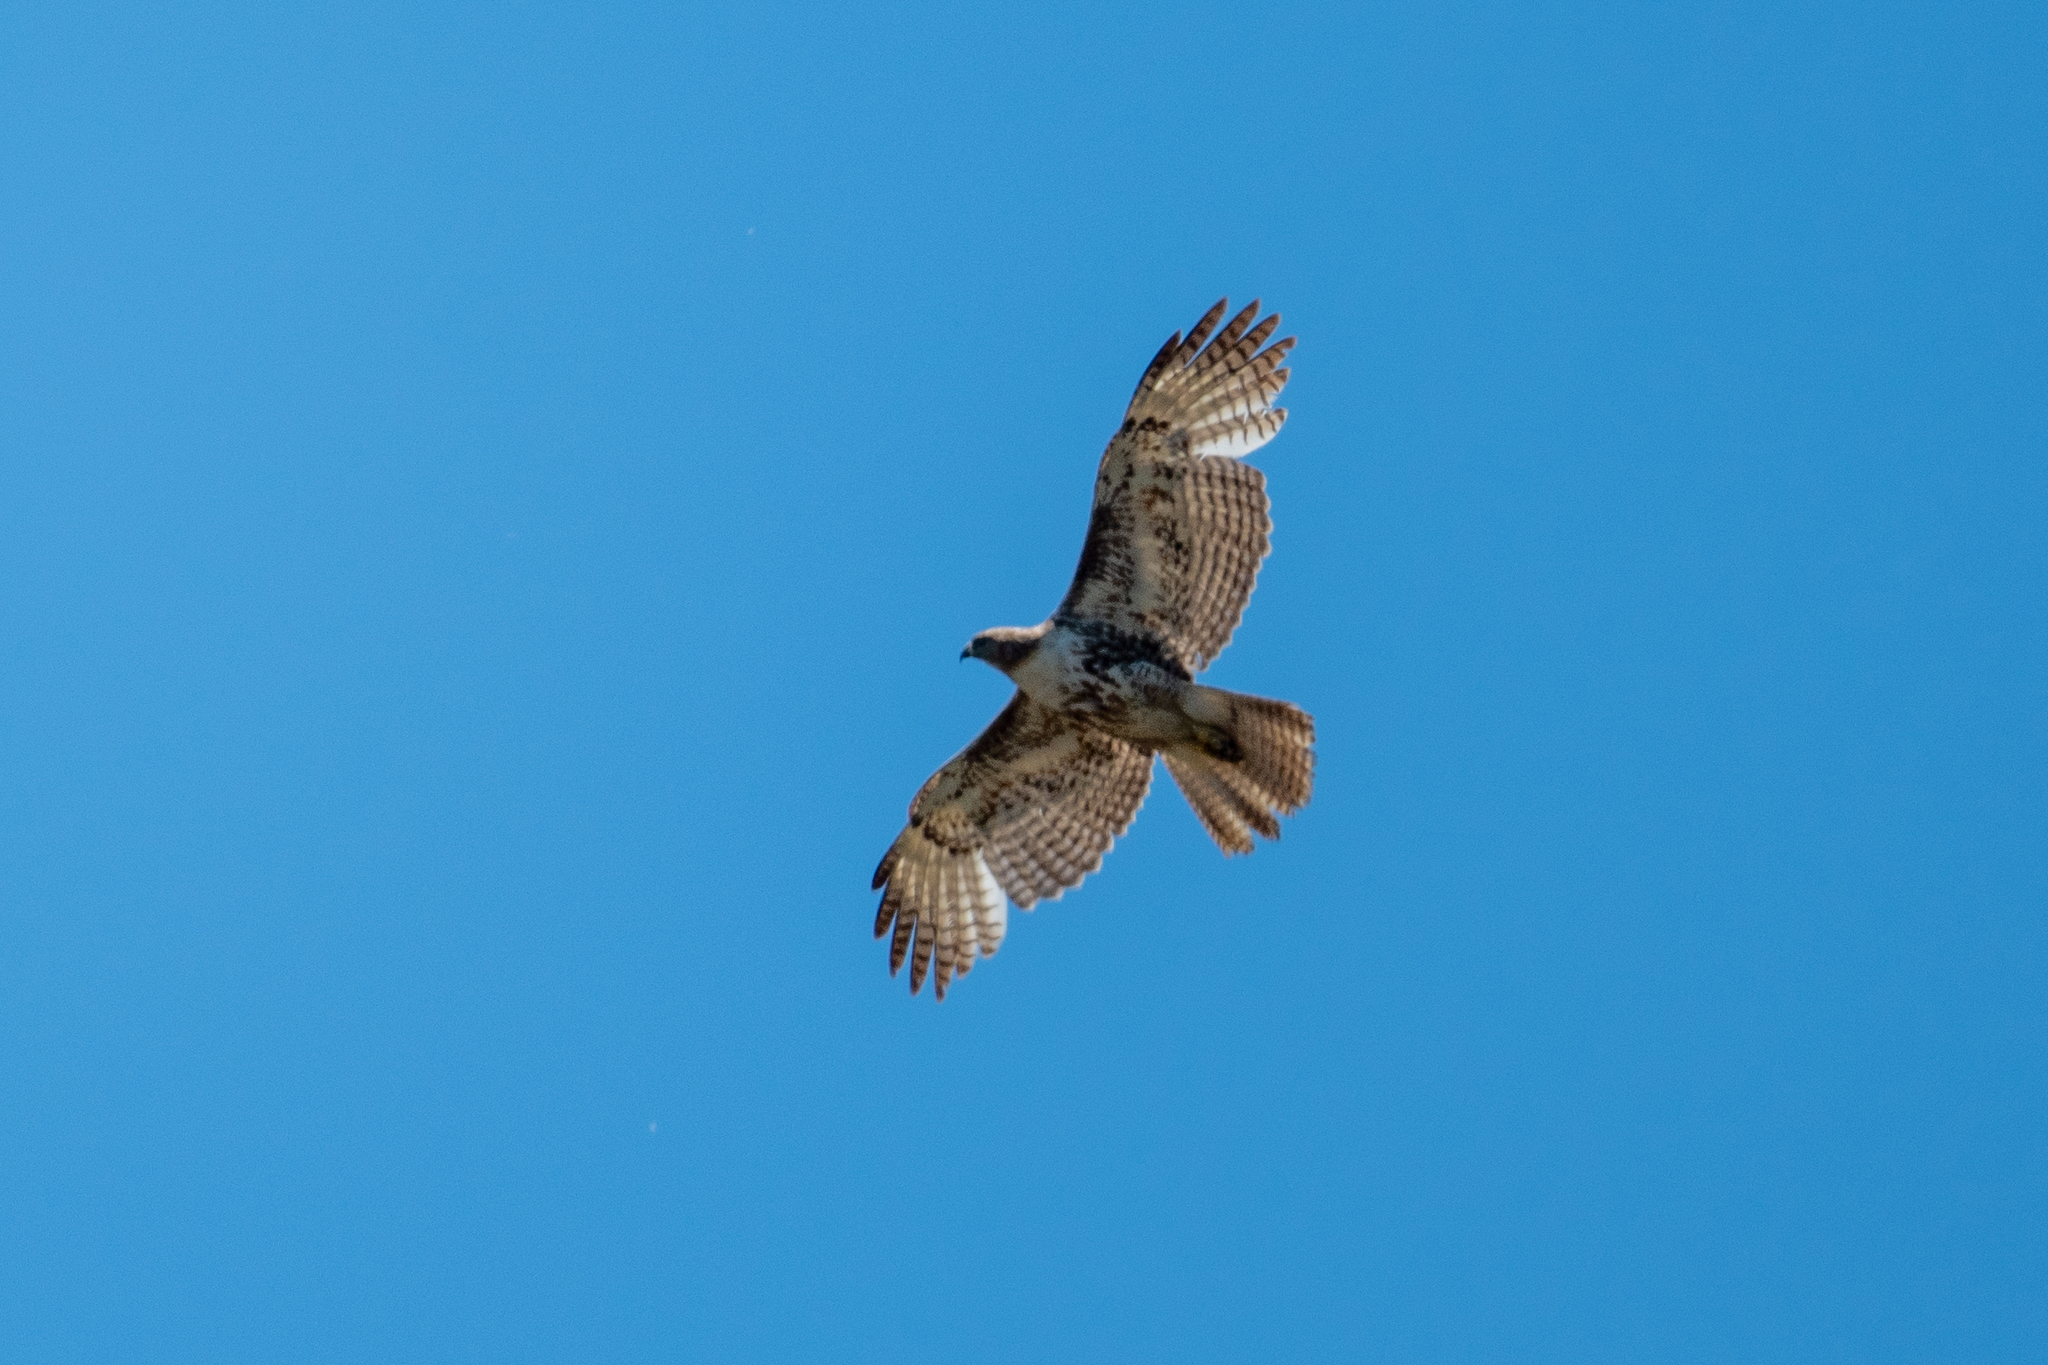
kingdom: Animalia
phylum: Chordata
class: Aves
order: Accipitriformes
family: Accipitridae
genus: Buteo
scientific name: Buteo jamaicensis
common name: Red-tailed hawk
